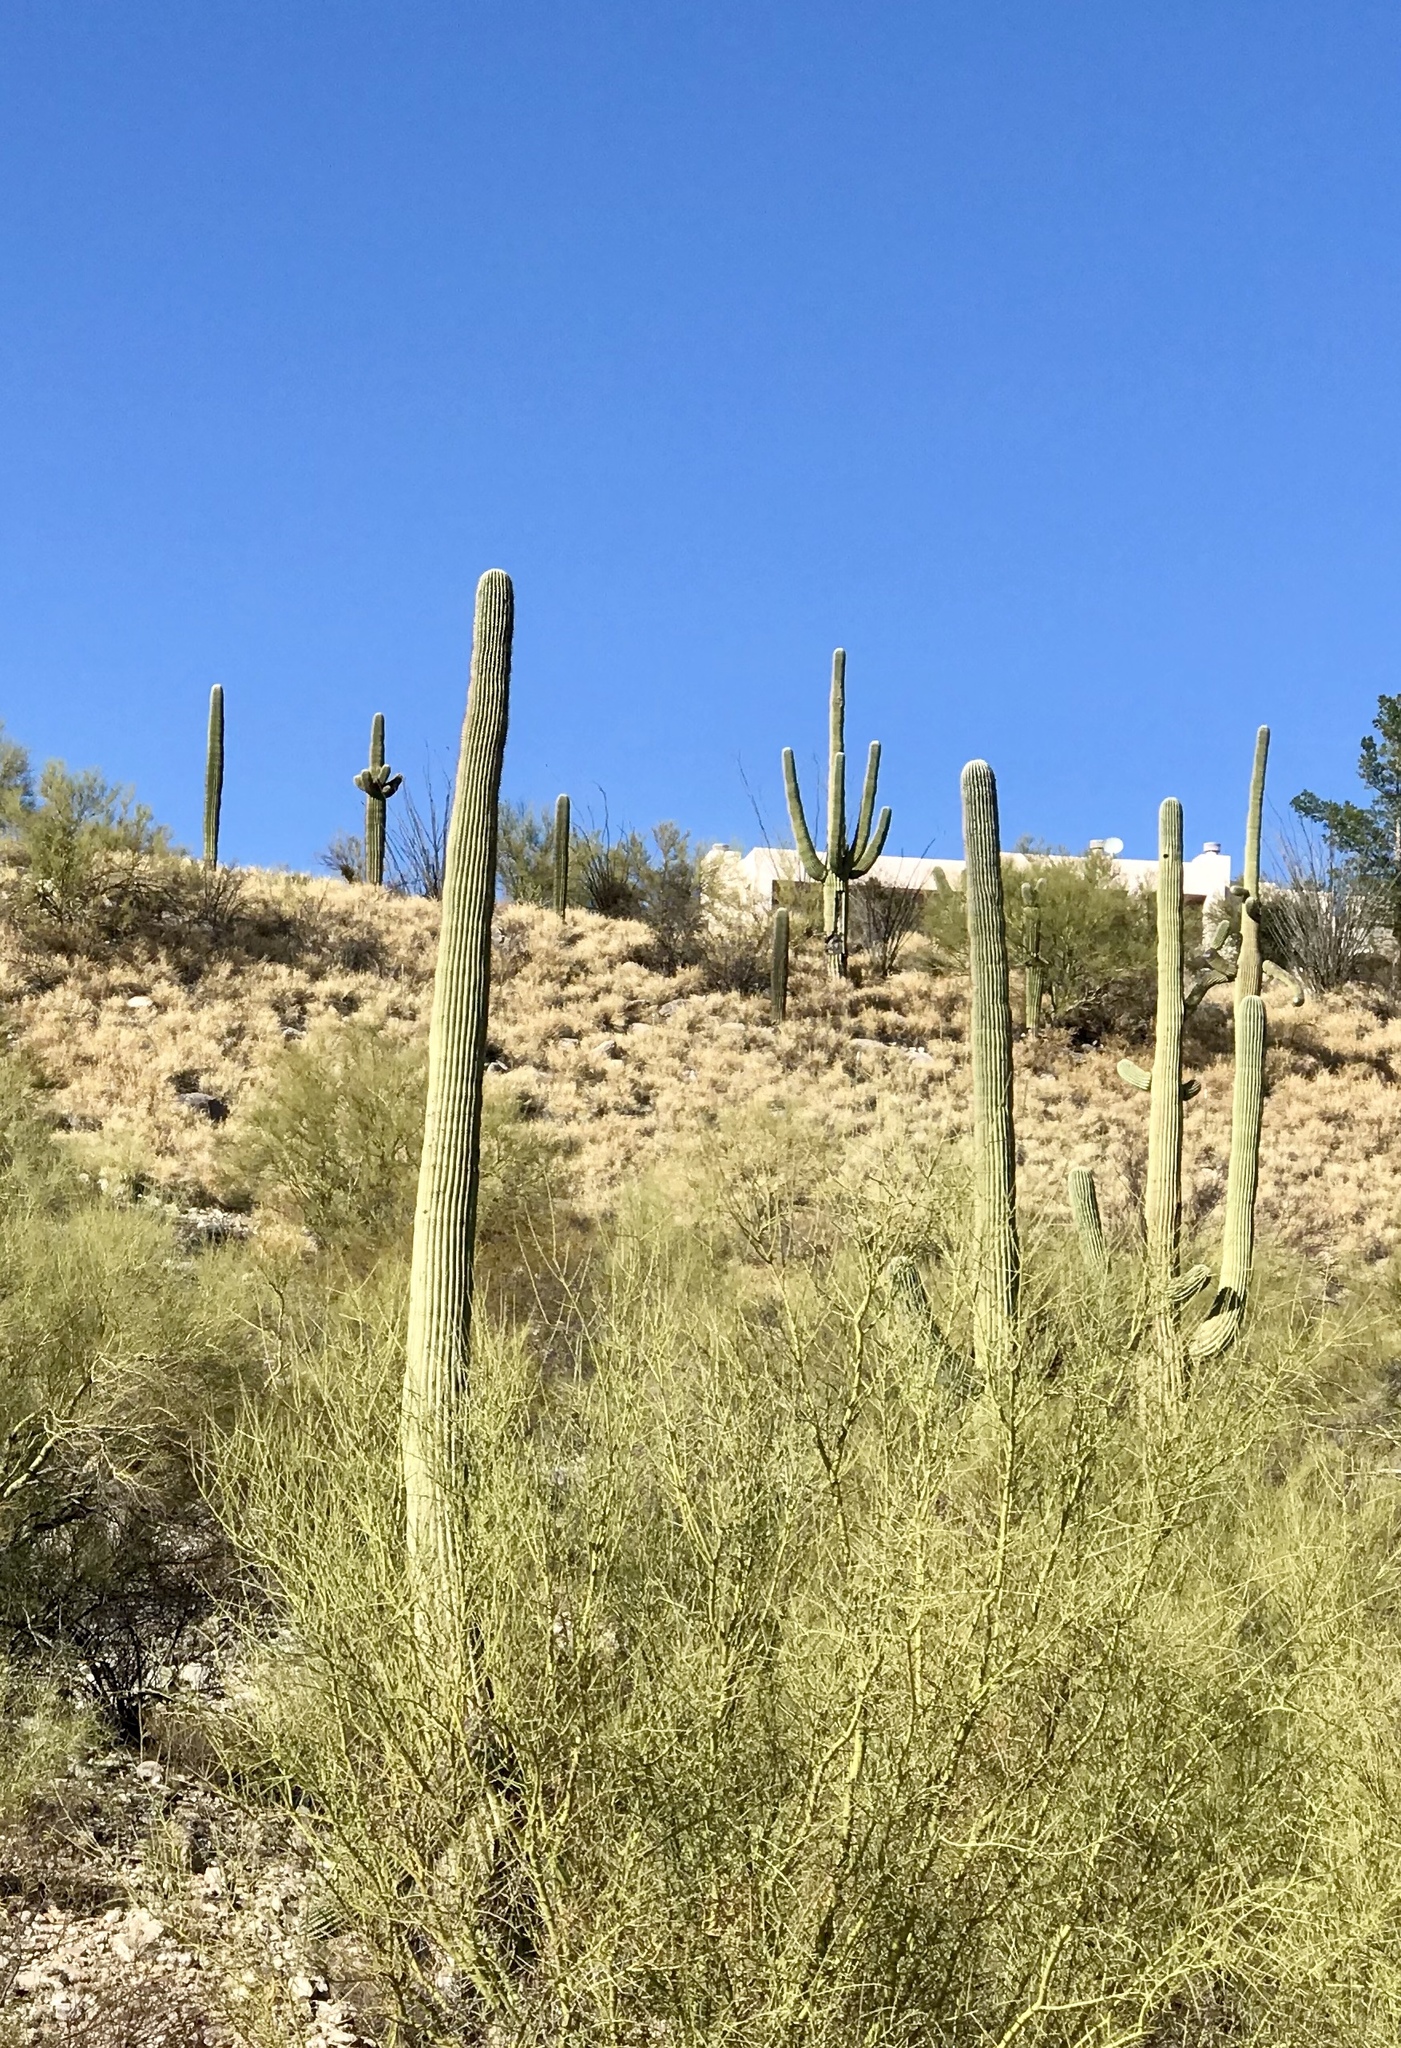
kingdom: Plantae
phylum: Tracheophyta
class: Magnoliopsida
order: Caryophyllales
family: Cactaceae
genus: Carnegiea
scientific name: Carnegiea gigantea
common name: Saguaro
